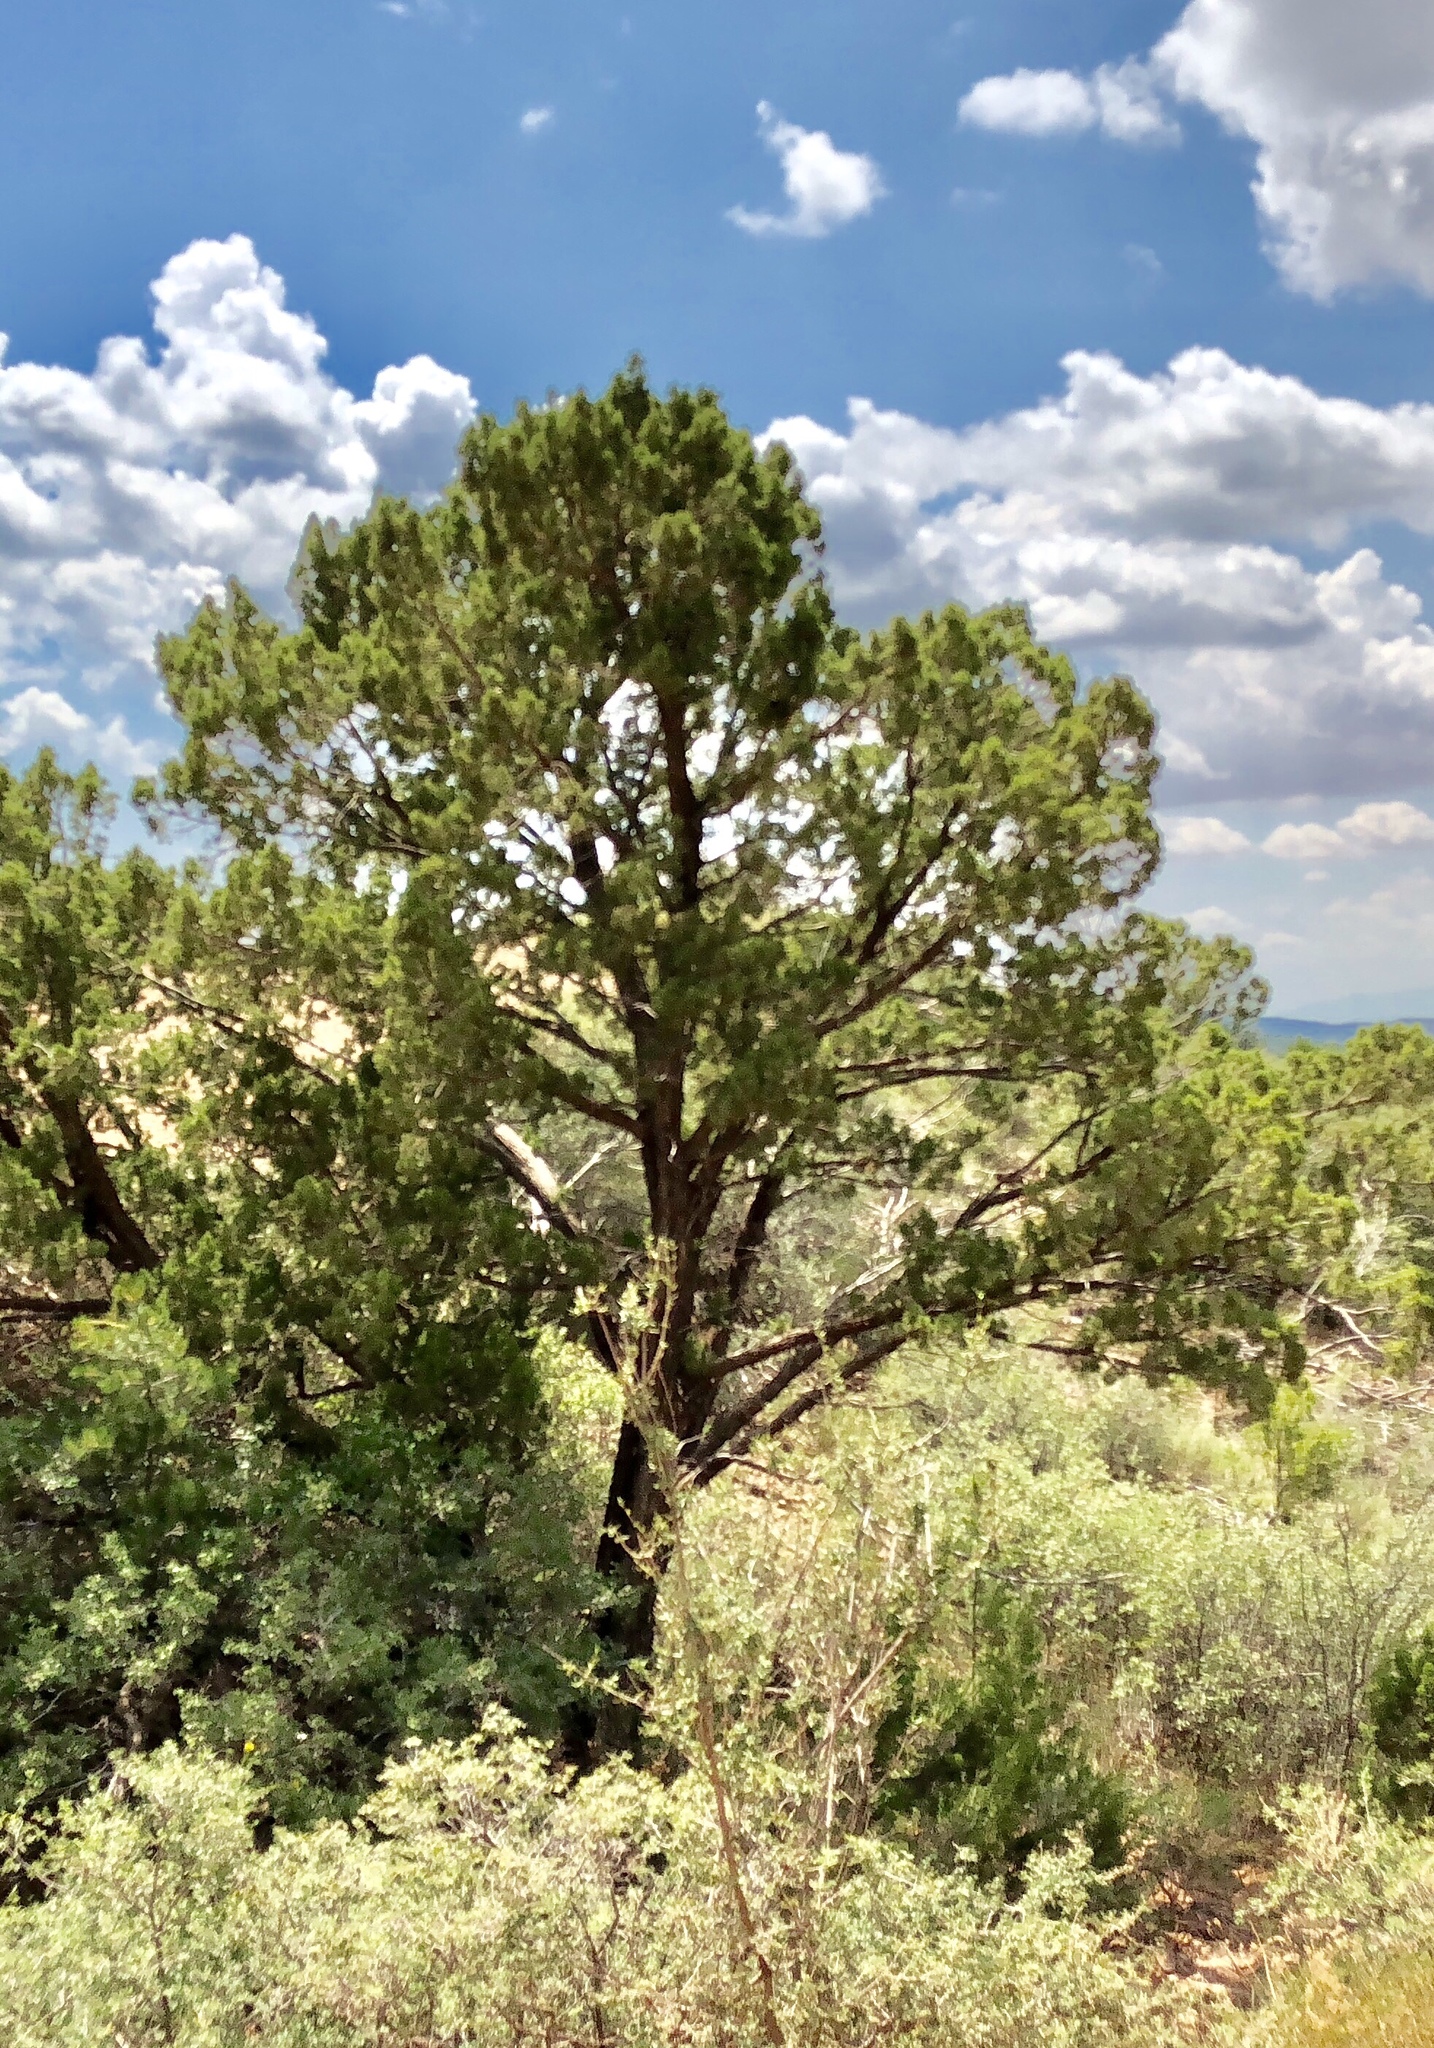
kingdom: Plantae
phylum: Tracheophyta
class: Pinopsida
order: Pinales
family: Pinaceae
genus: Pinus
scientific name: Pinus edulis
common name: Colorado pinyon
